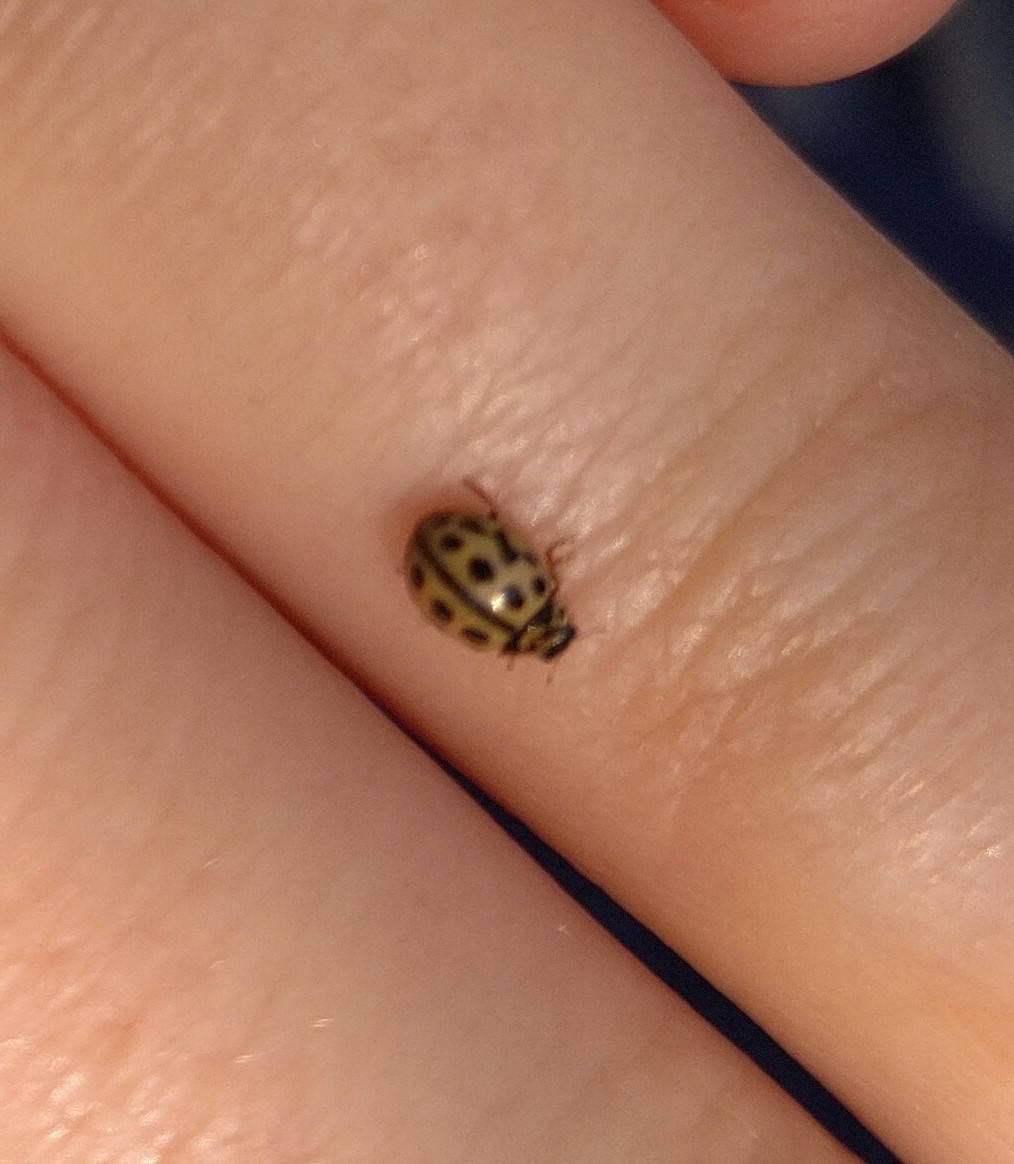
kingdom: Animalia
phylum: Arthropoda
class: Insecta
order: Coleoptera
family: Coccinellidae
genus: Tytthaspis
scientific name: Tytthaspis sedecimpunctata
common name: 16-spot ladybird
